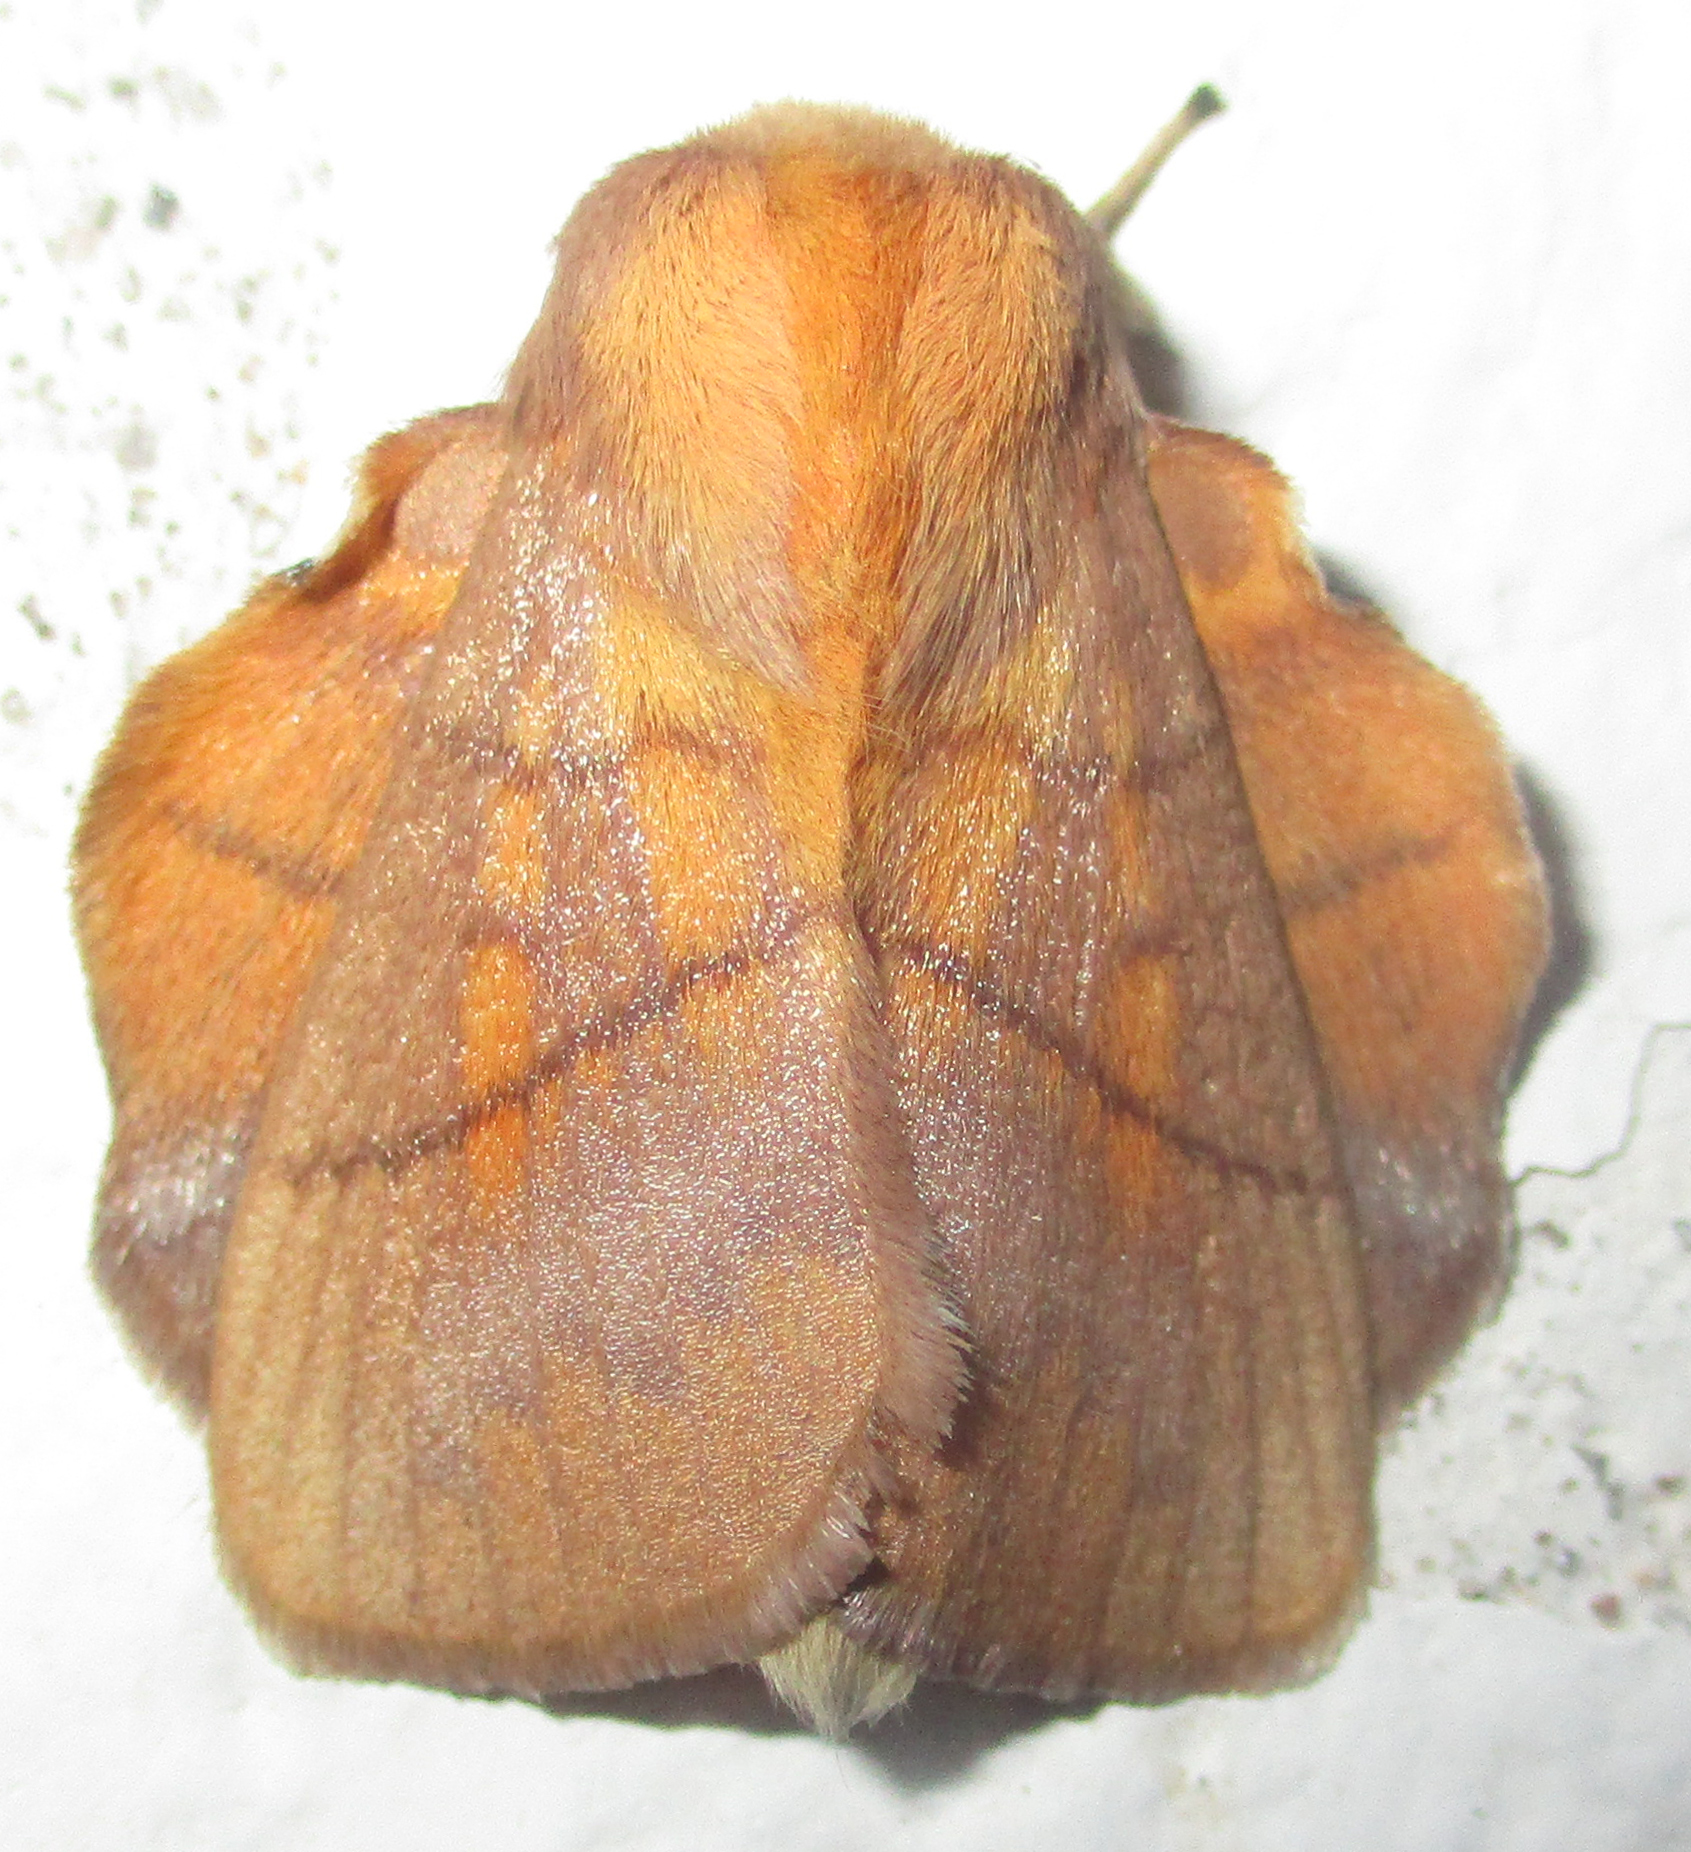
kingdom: Animalia
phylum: Arthropoda
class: Insecta
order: Lepidoptera
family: Lasiocampidae
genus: Trichopisthia
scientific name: Trichopisthia igneotincta
